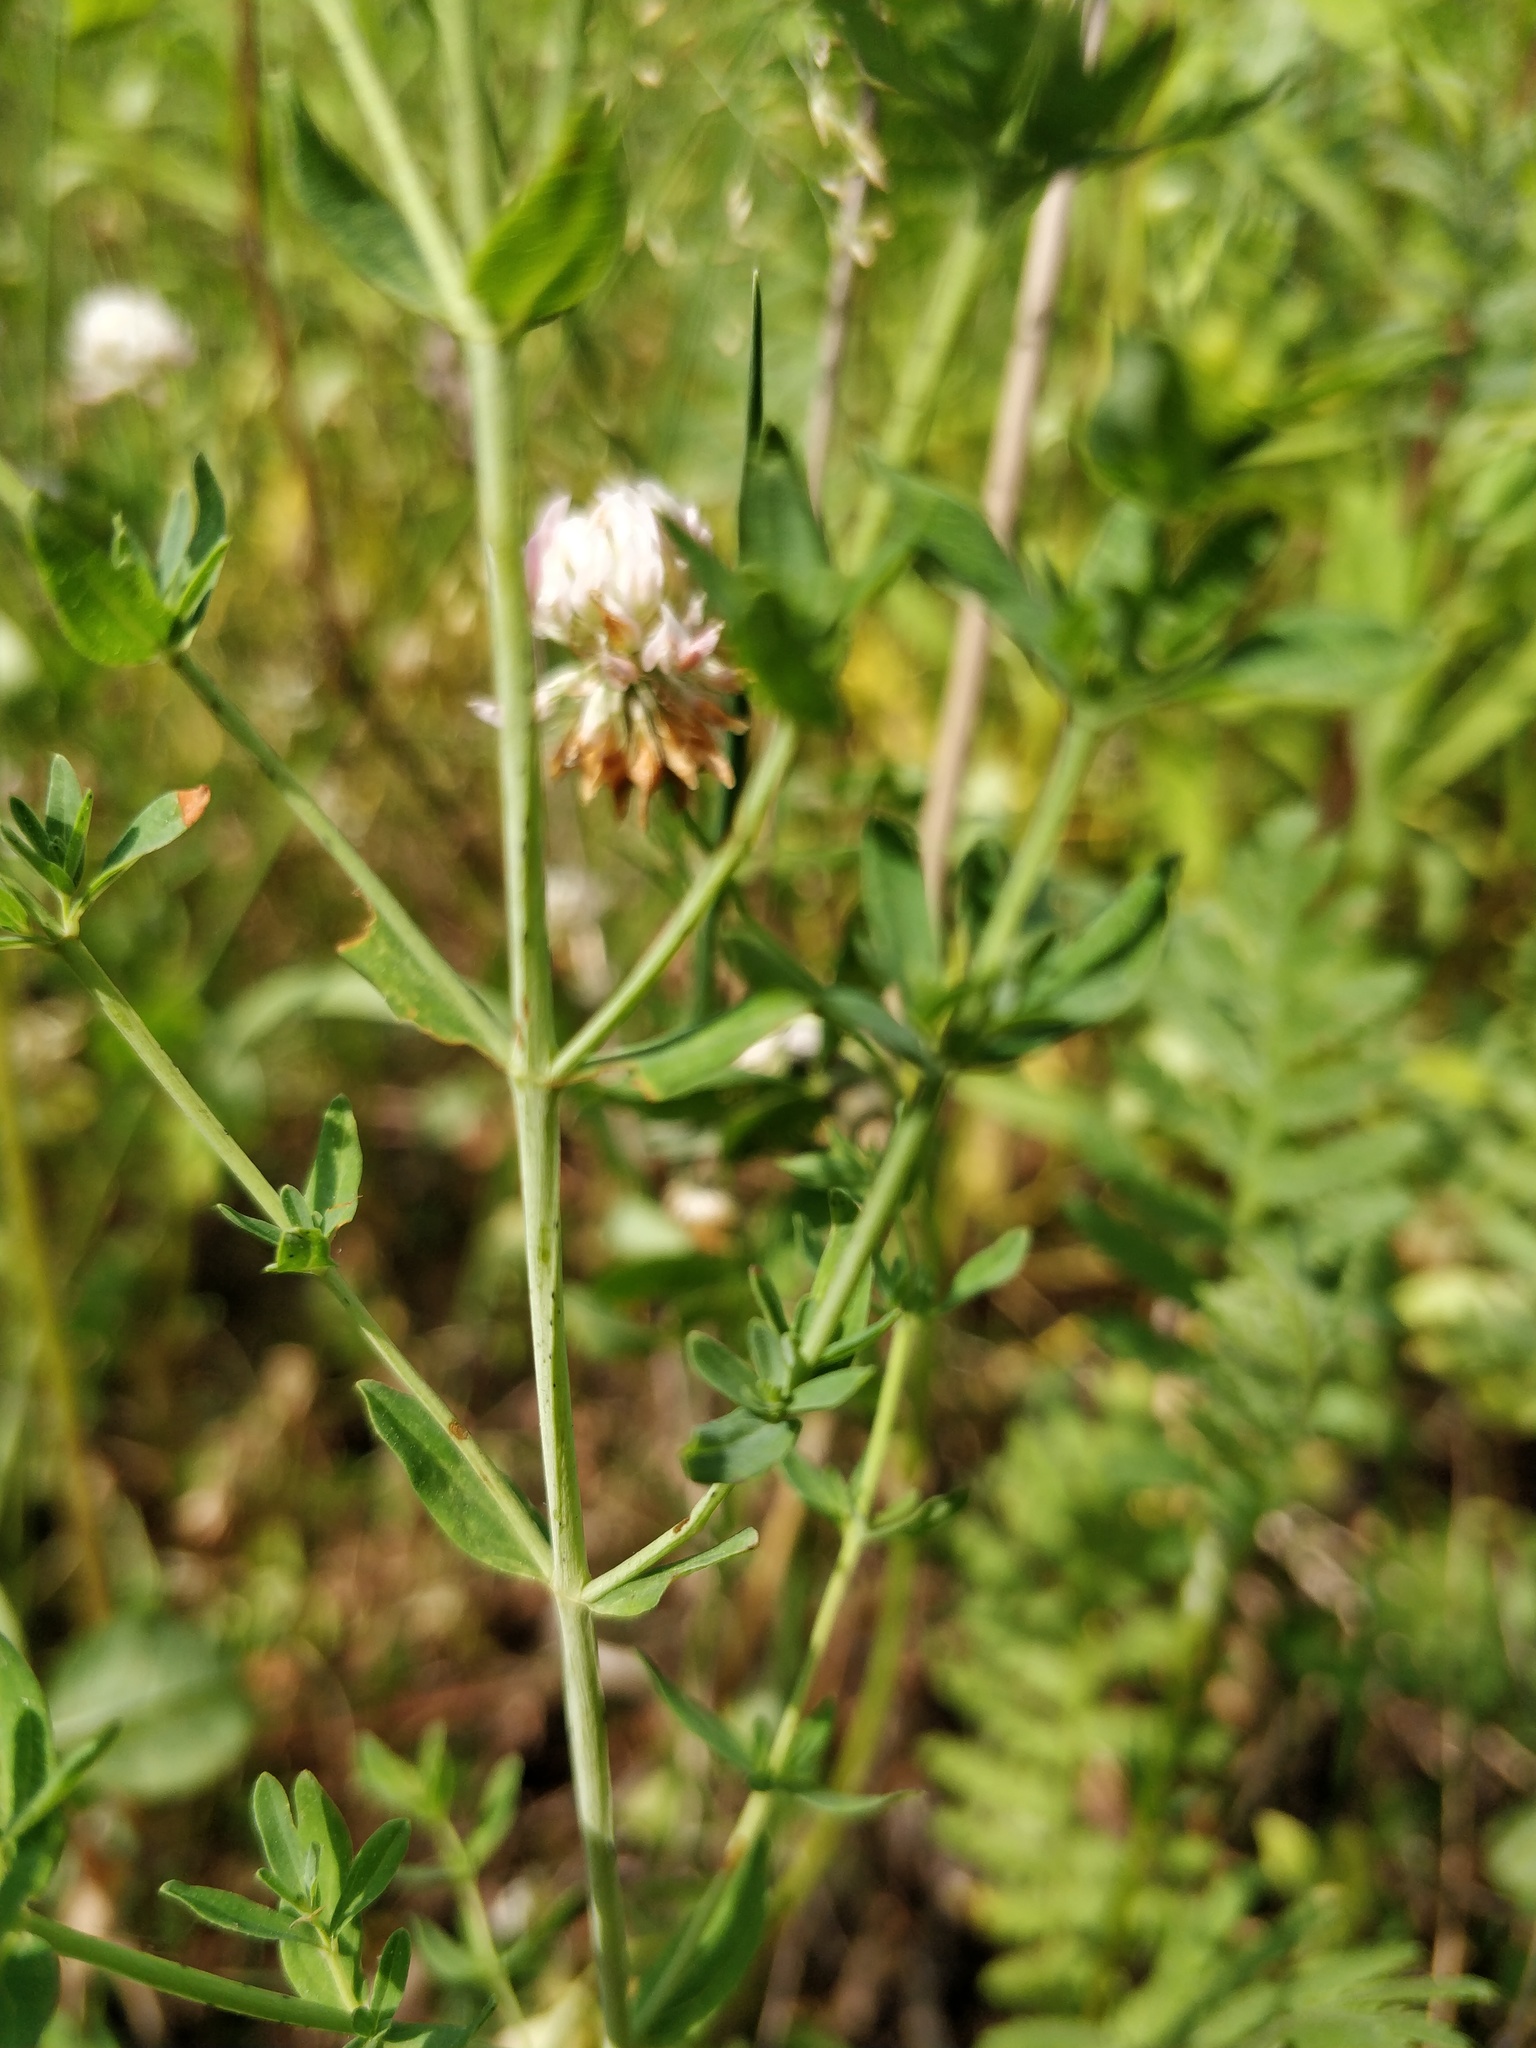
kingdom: Plantae
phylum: Tracheophyta
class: Magnoliopsida
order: Malpighiales
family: Hypericaceae
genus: Hypericum
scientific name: Hypericum perforatum
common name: Common st. johnswort
